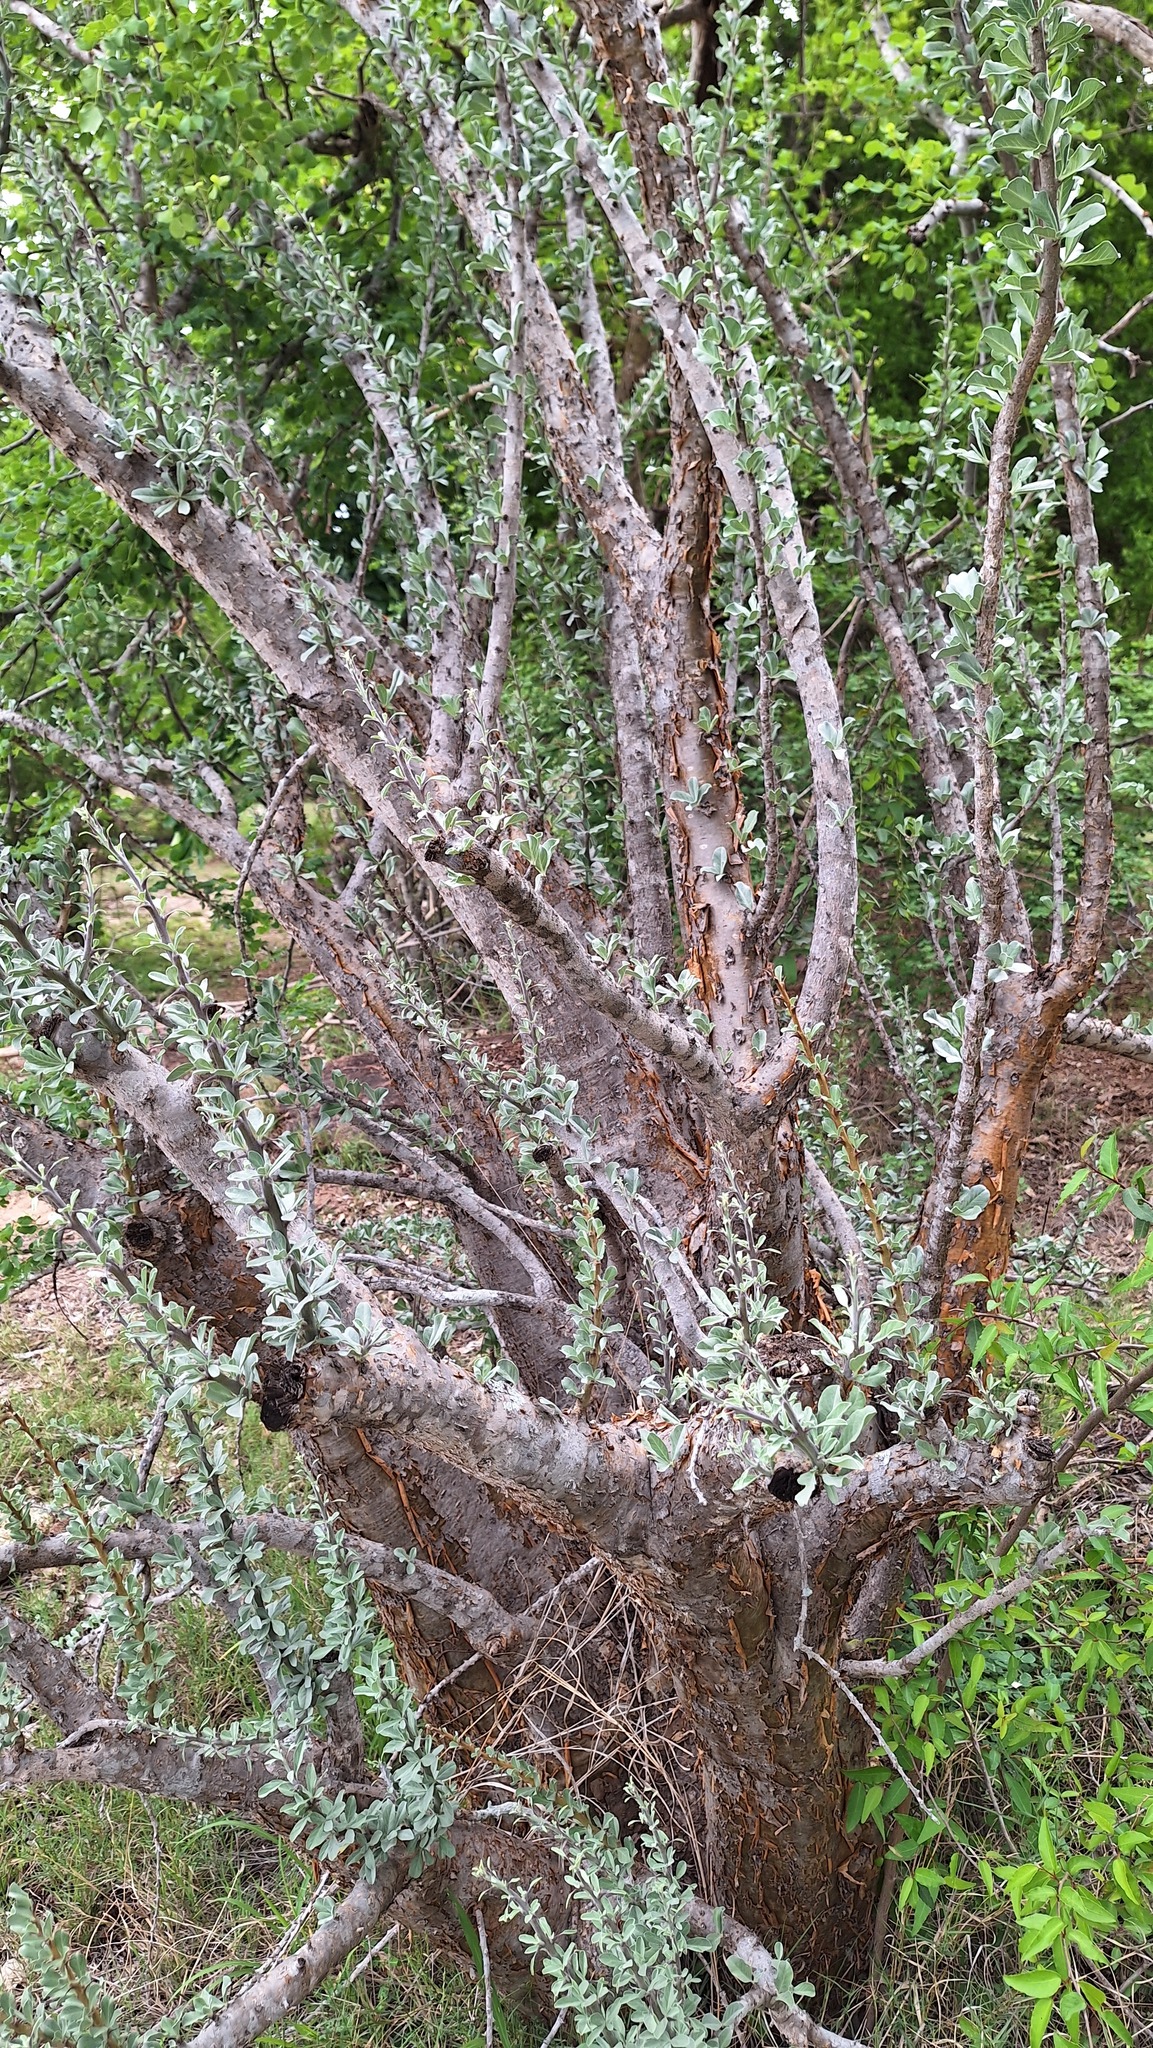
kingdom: Plantae
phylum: Tracheophyta
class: Magnoliopsida
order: Lamiales
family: Pedaliaceae
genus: Sesamothamnus
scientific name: Sesamothamnus lugardii
